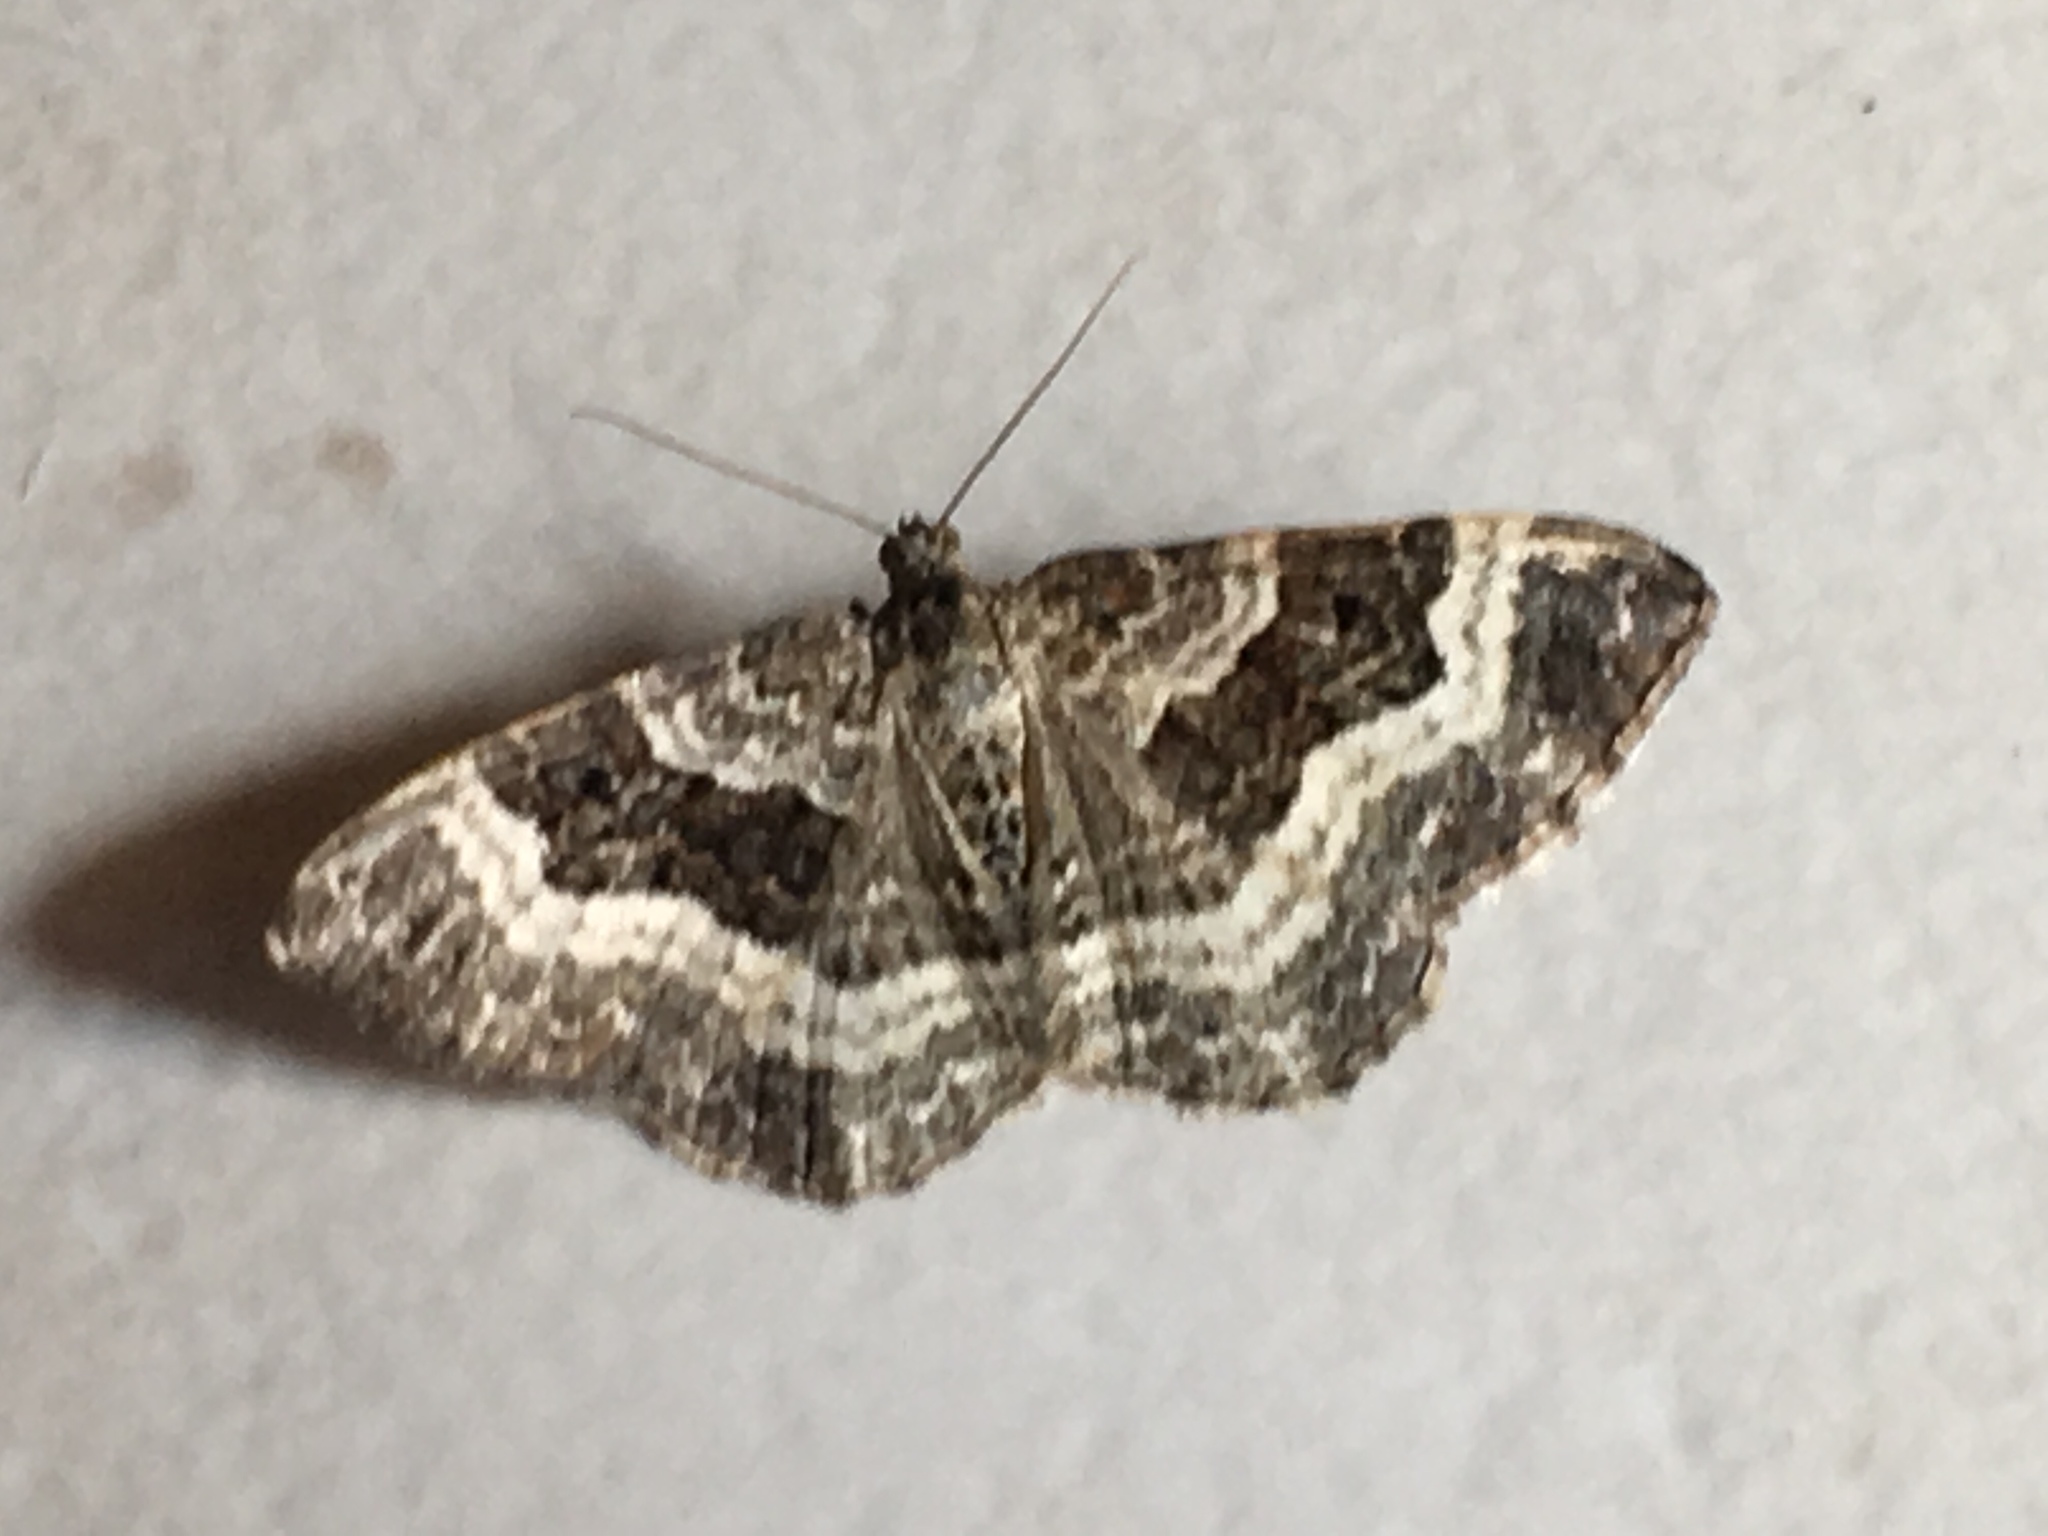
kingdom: Animalia
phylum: Arthropoda
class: Insecta
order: Lepidoptera
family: Geometridae
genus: Epirrhoe
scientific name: Epirrhoe alternata
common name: Common carpet
